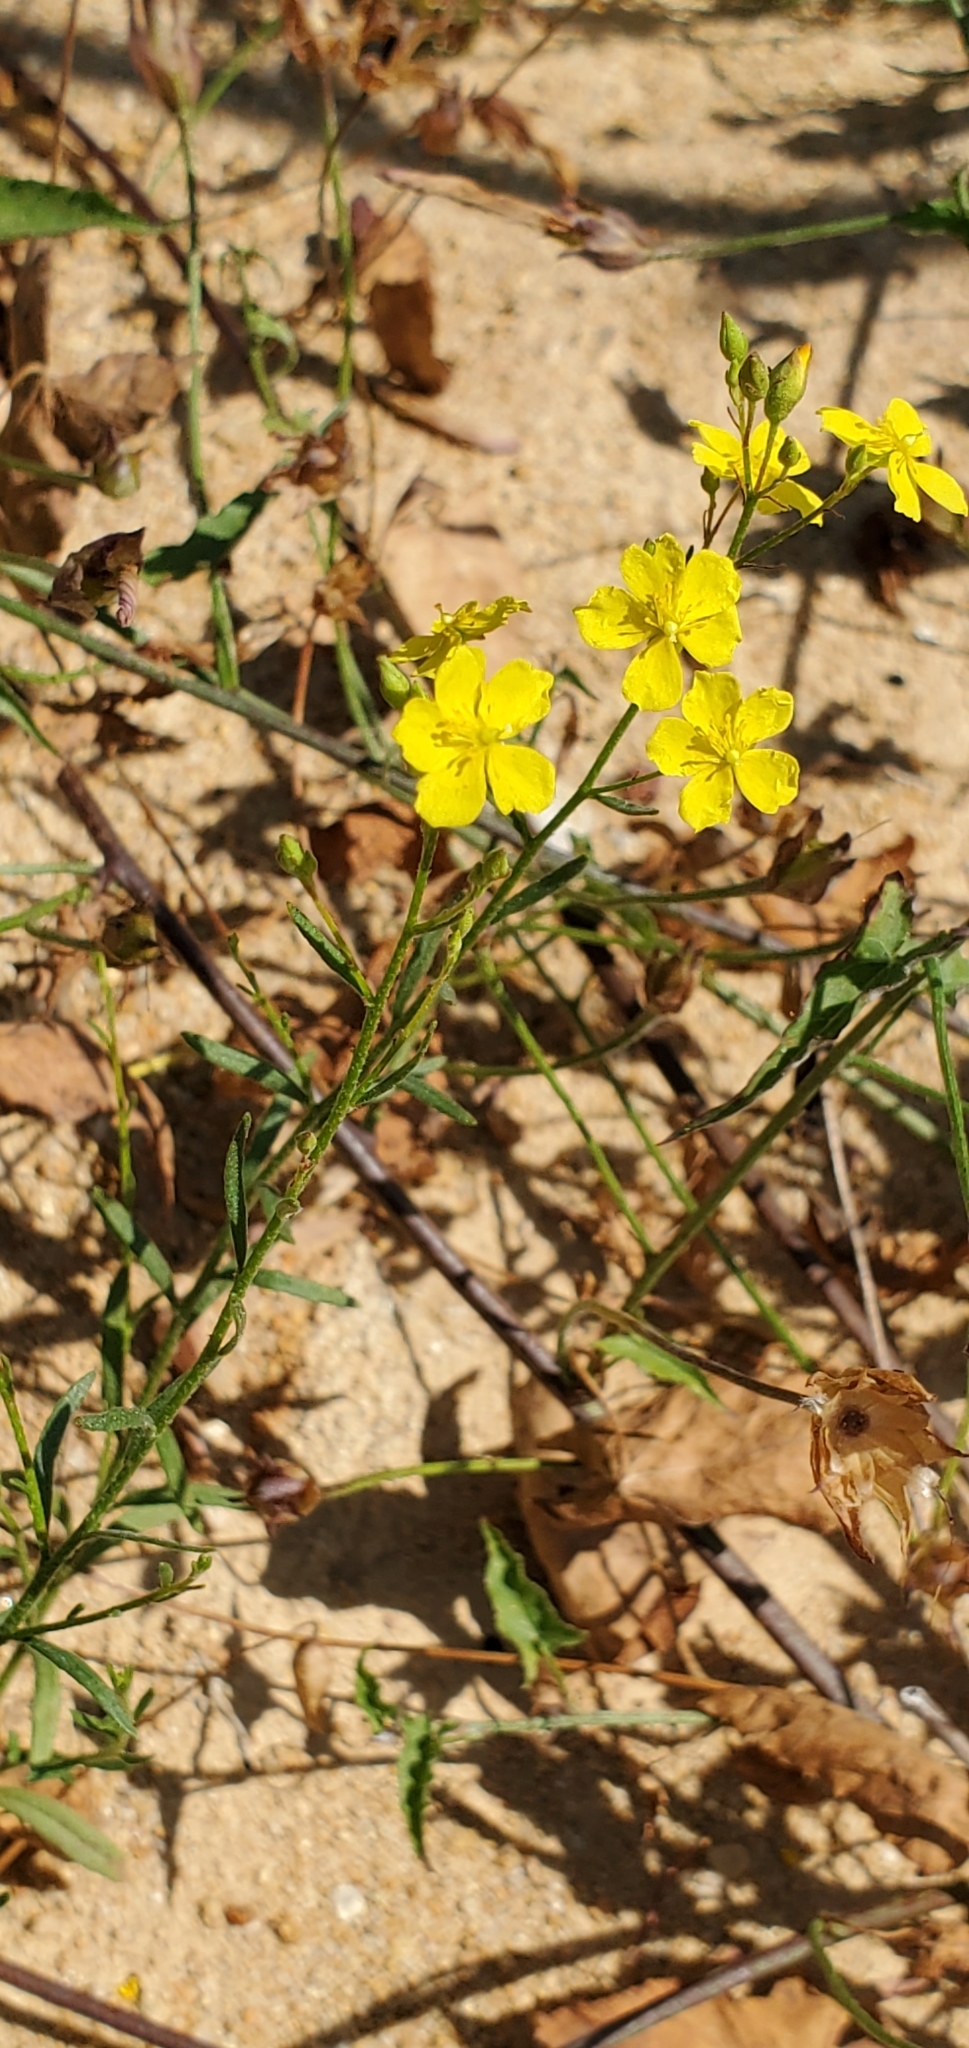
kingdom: Plantae
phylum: Tracheophyta
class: Magnoliopsida
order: Malvales
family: Cistaceae
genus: Crocanthemum
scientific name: Crocanthemum scoparium
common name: Broom-rose
